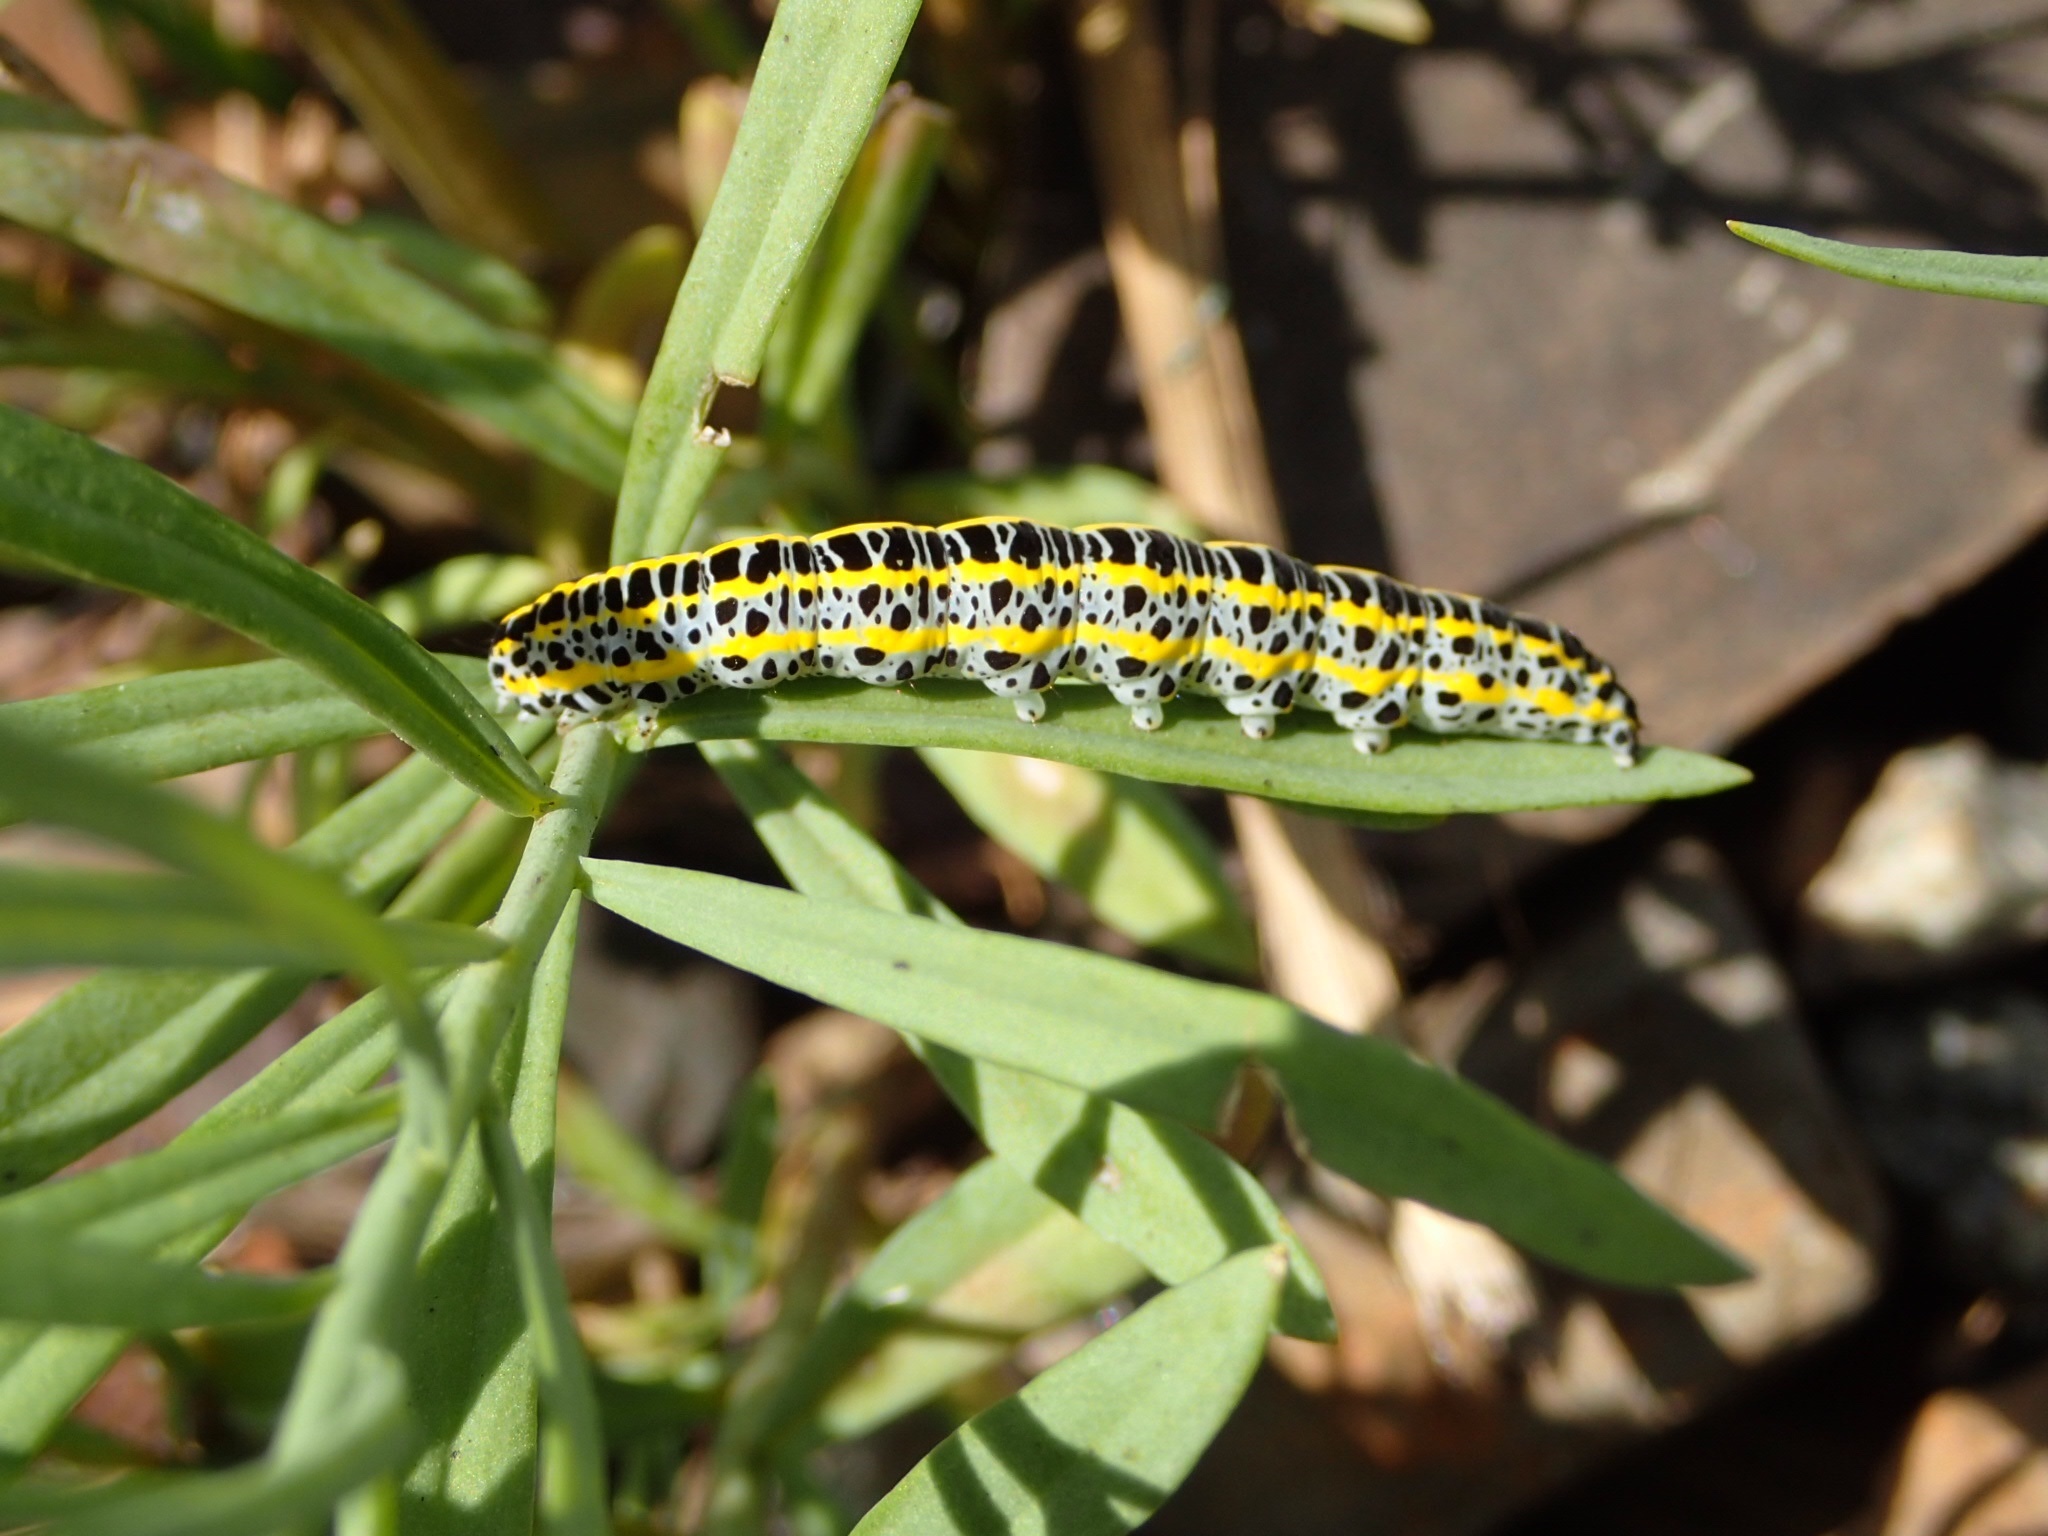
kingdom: Animalia
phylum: Arthropoda
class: Insecta
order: Lepidoptera
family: Noctuidae
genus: Calophasia
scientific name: Calophasia lunula
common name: Toadflax brocade
